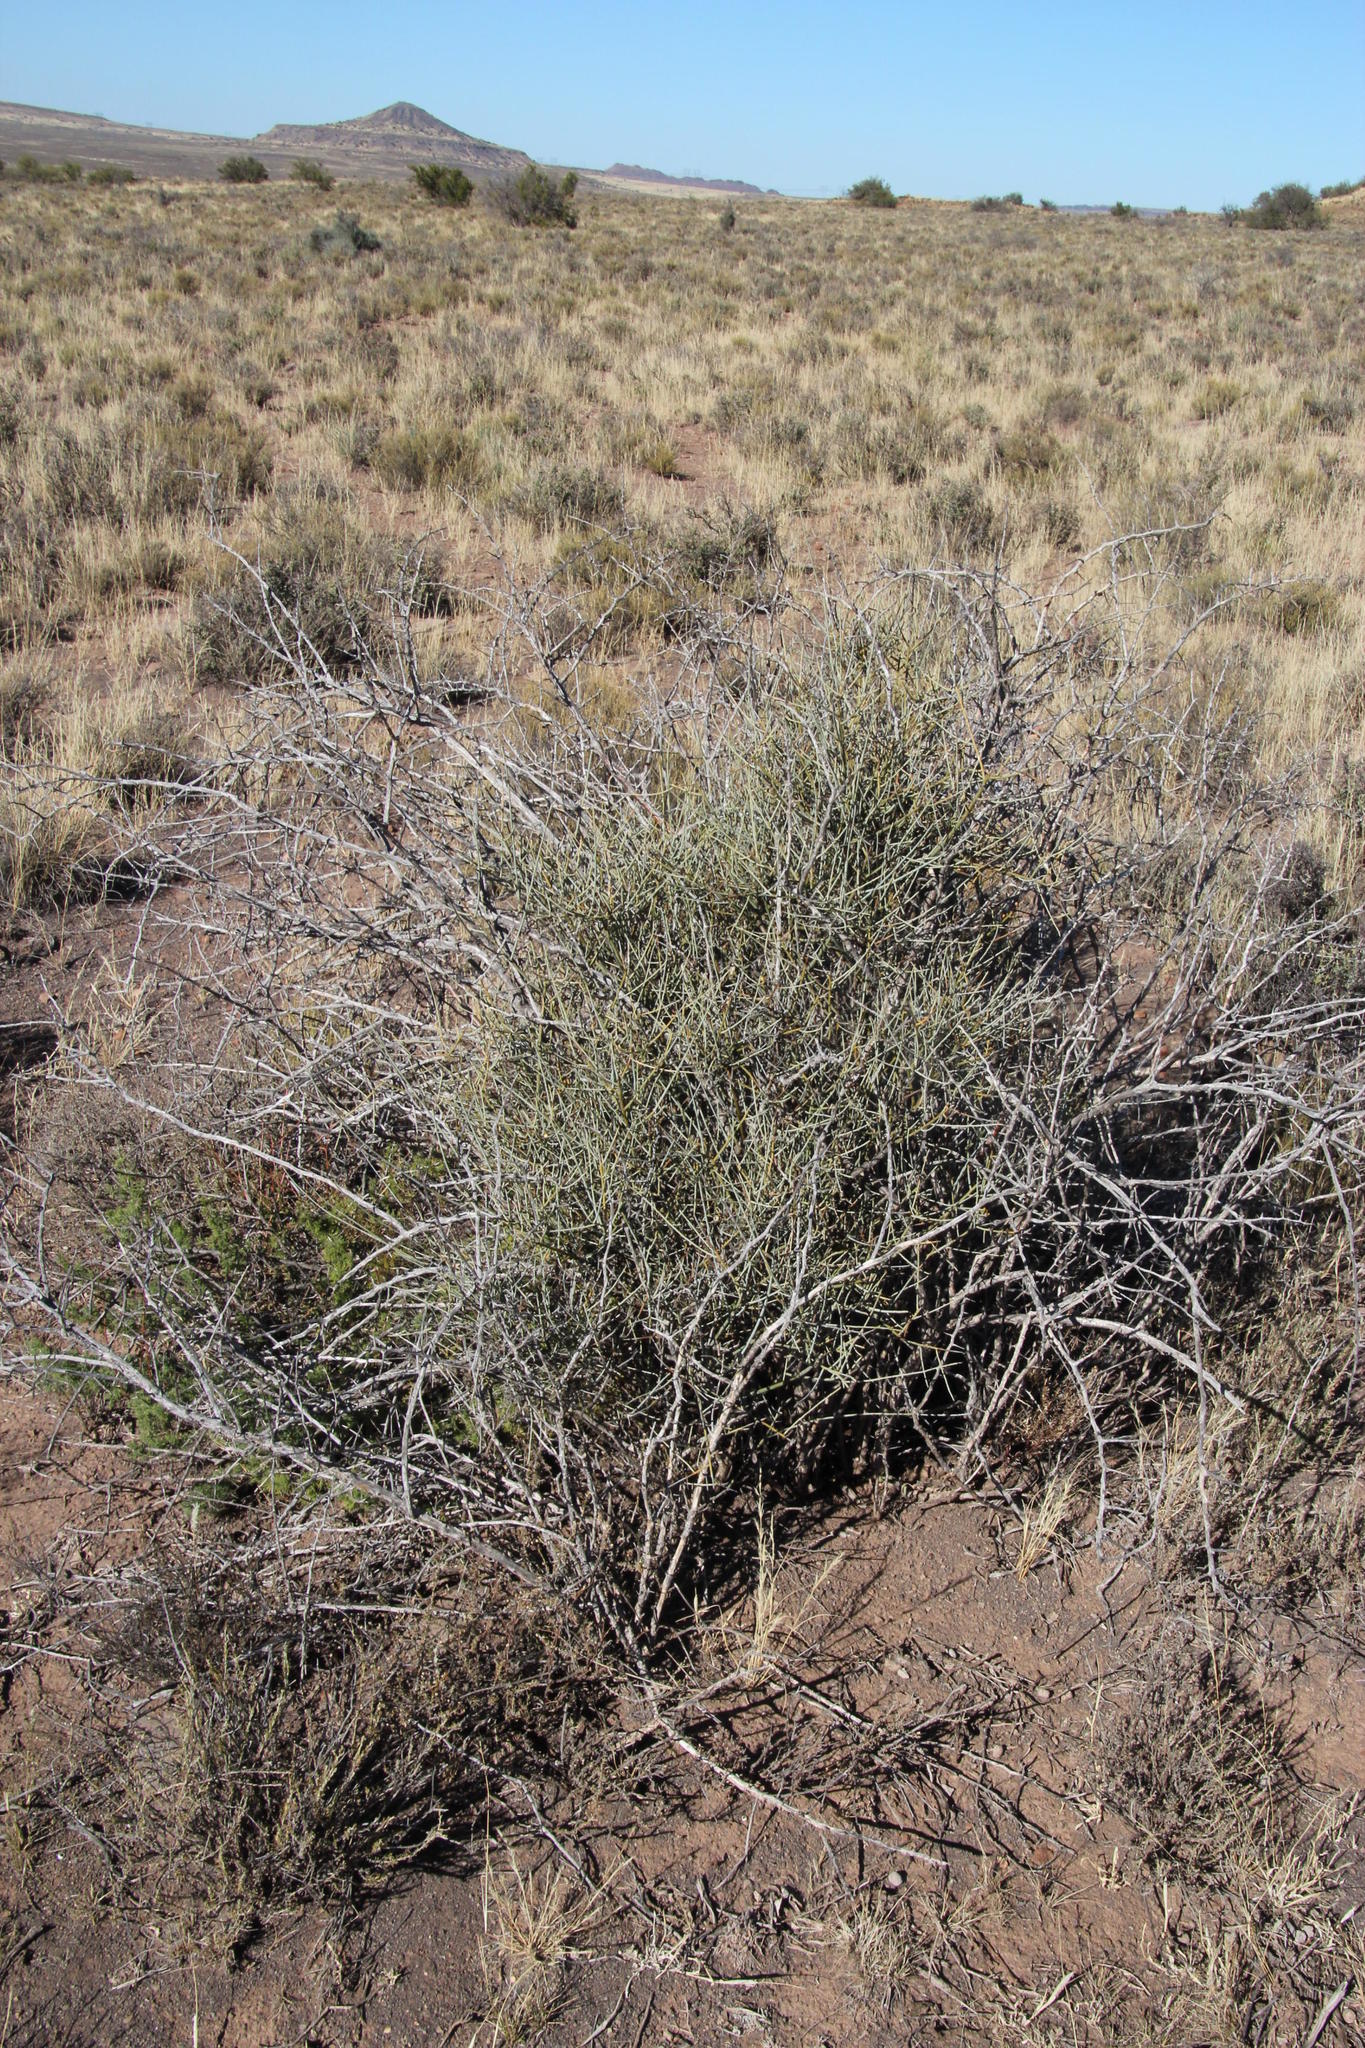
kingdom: Plantae
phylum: Tracheophyta
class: Magnoliopsida
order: Santalales
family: Thesiaceae
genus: Lacomucinaea
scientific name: Lacomucinaea lineata
